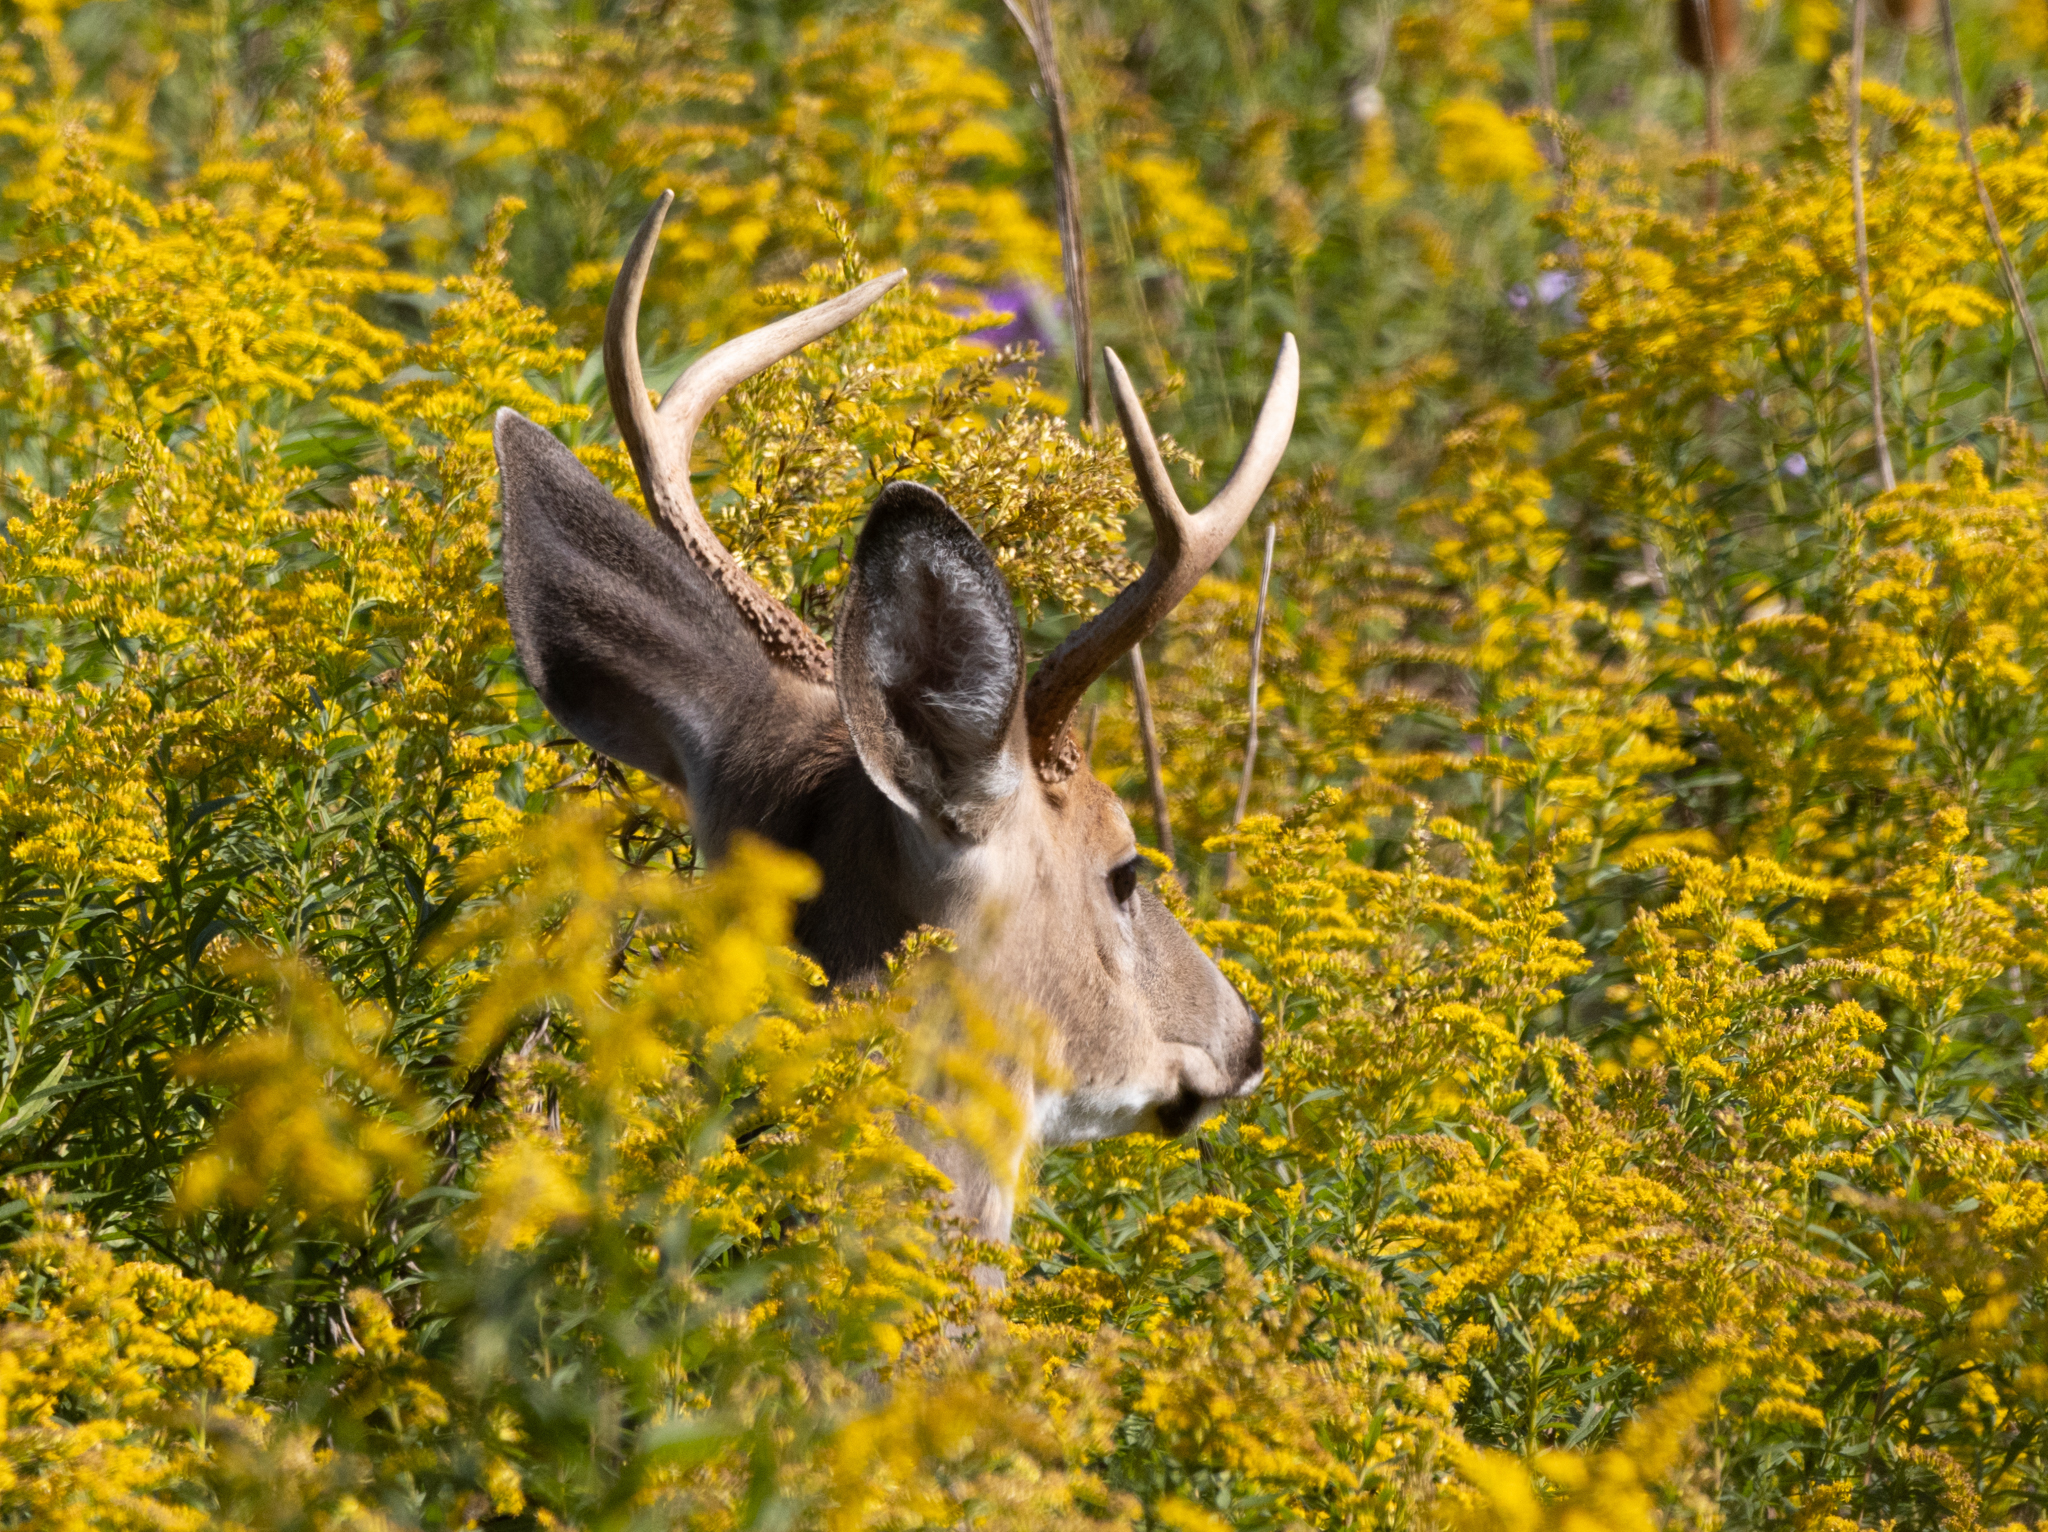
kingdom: Animalia
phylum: Chordata
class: Mammalia
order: Artiodactyla
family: Cervidae
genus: Odocoileus
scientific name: Odocoileus virginianus
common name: White-tailed deer
